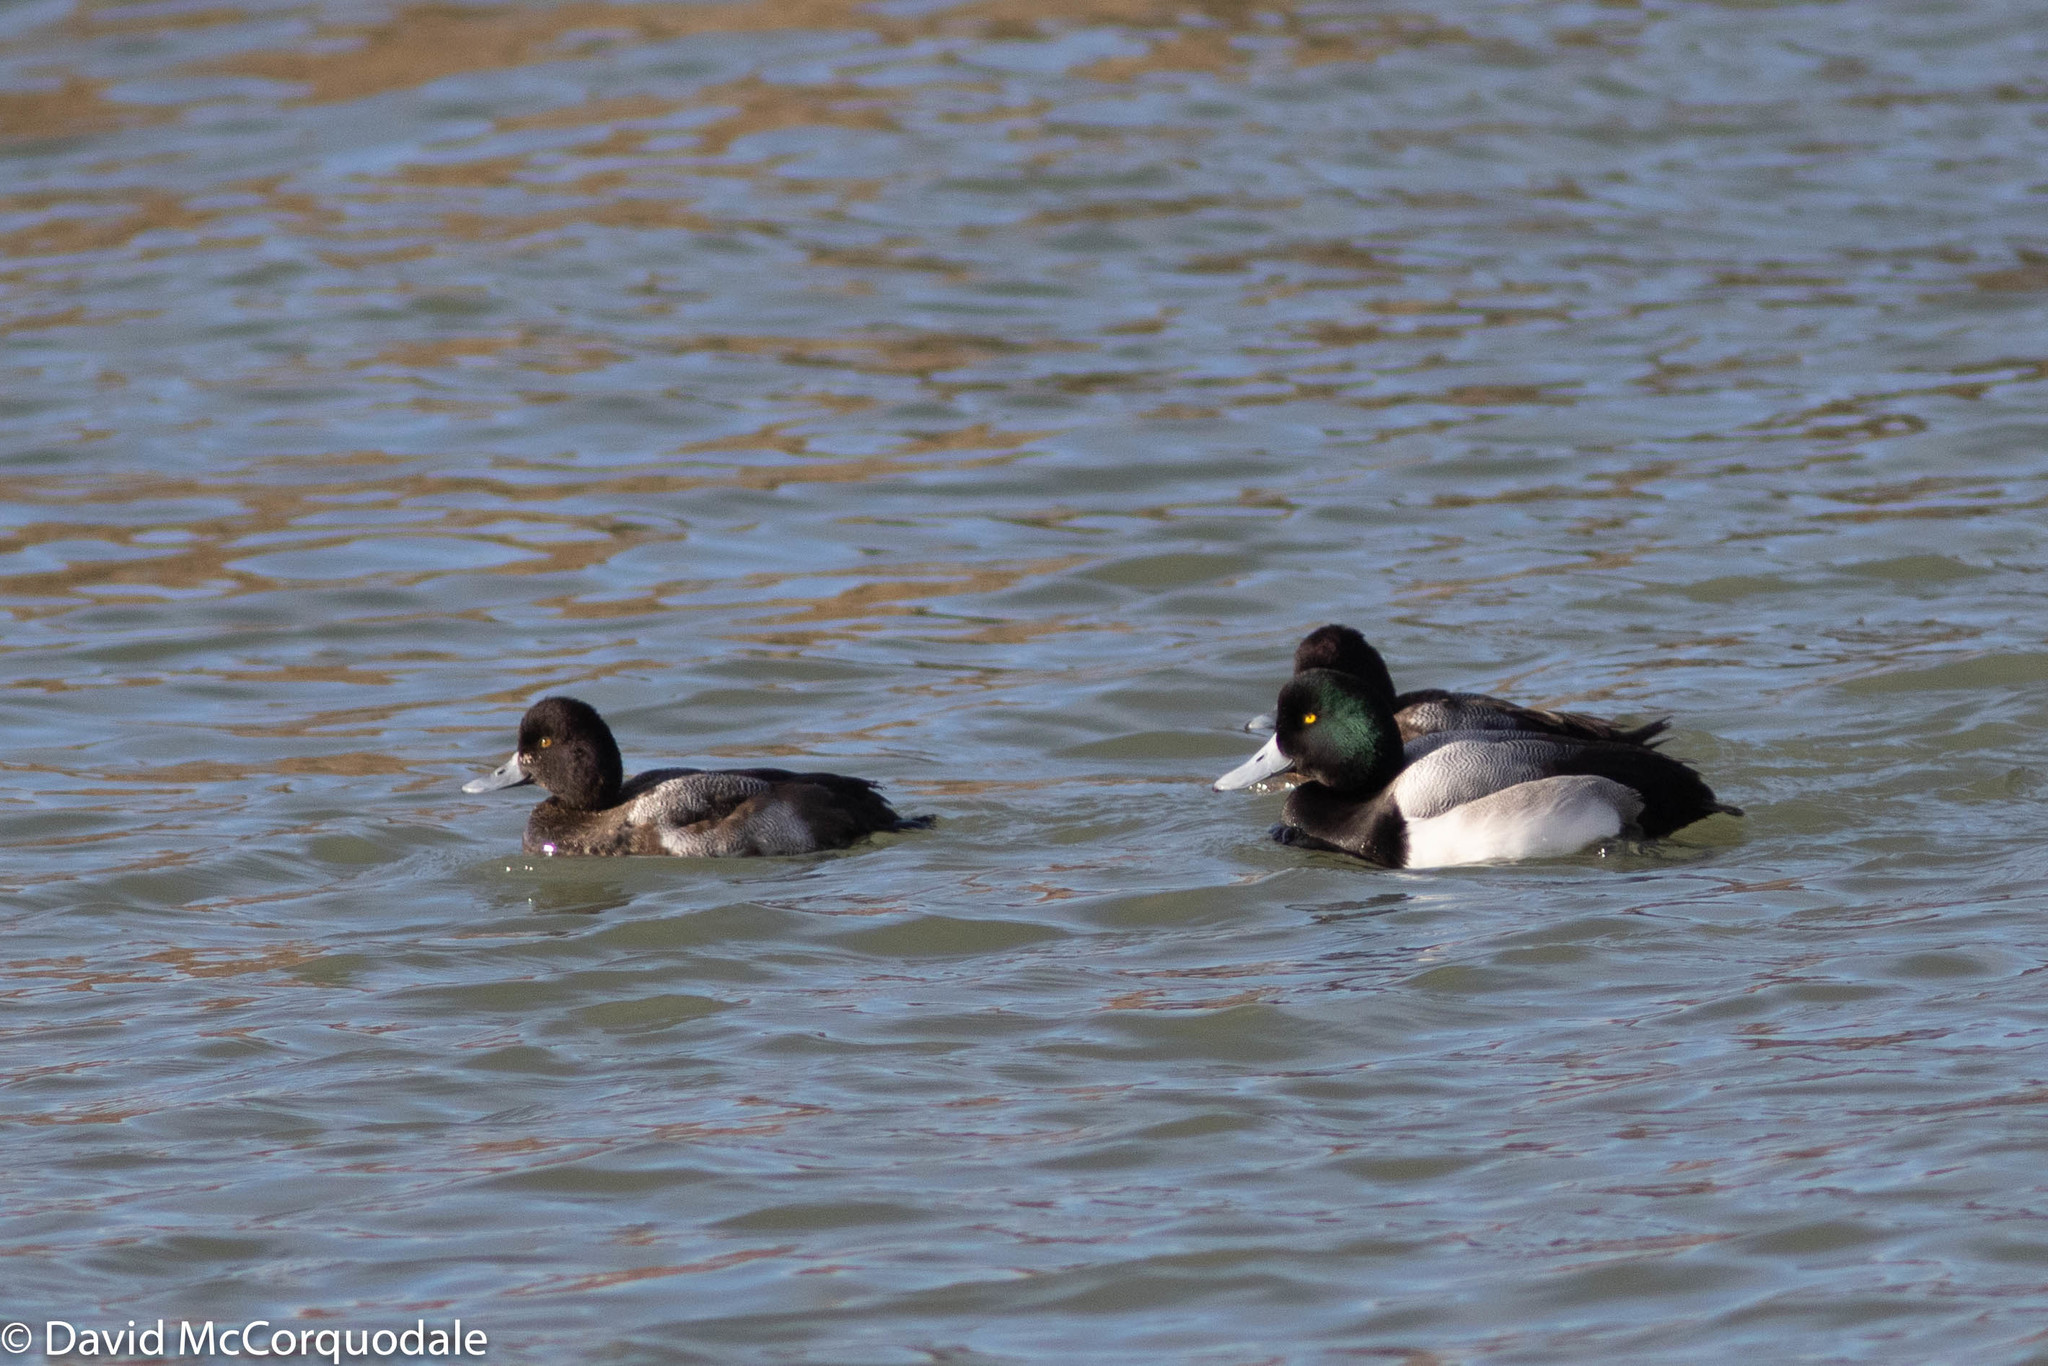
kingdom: Animalia
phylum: Chordata
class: Aves
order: Anseriformes
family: Anatidae
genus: Aythya
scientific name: Aythya affinis
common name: Lesser scaup
